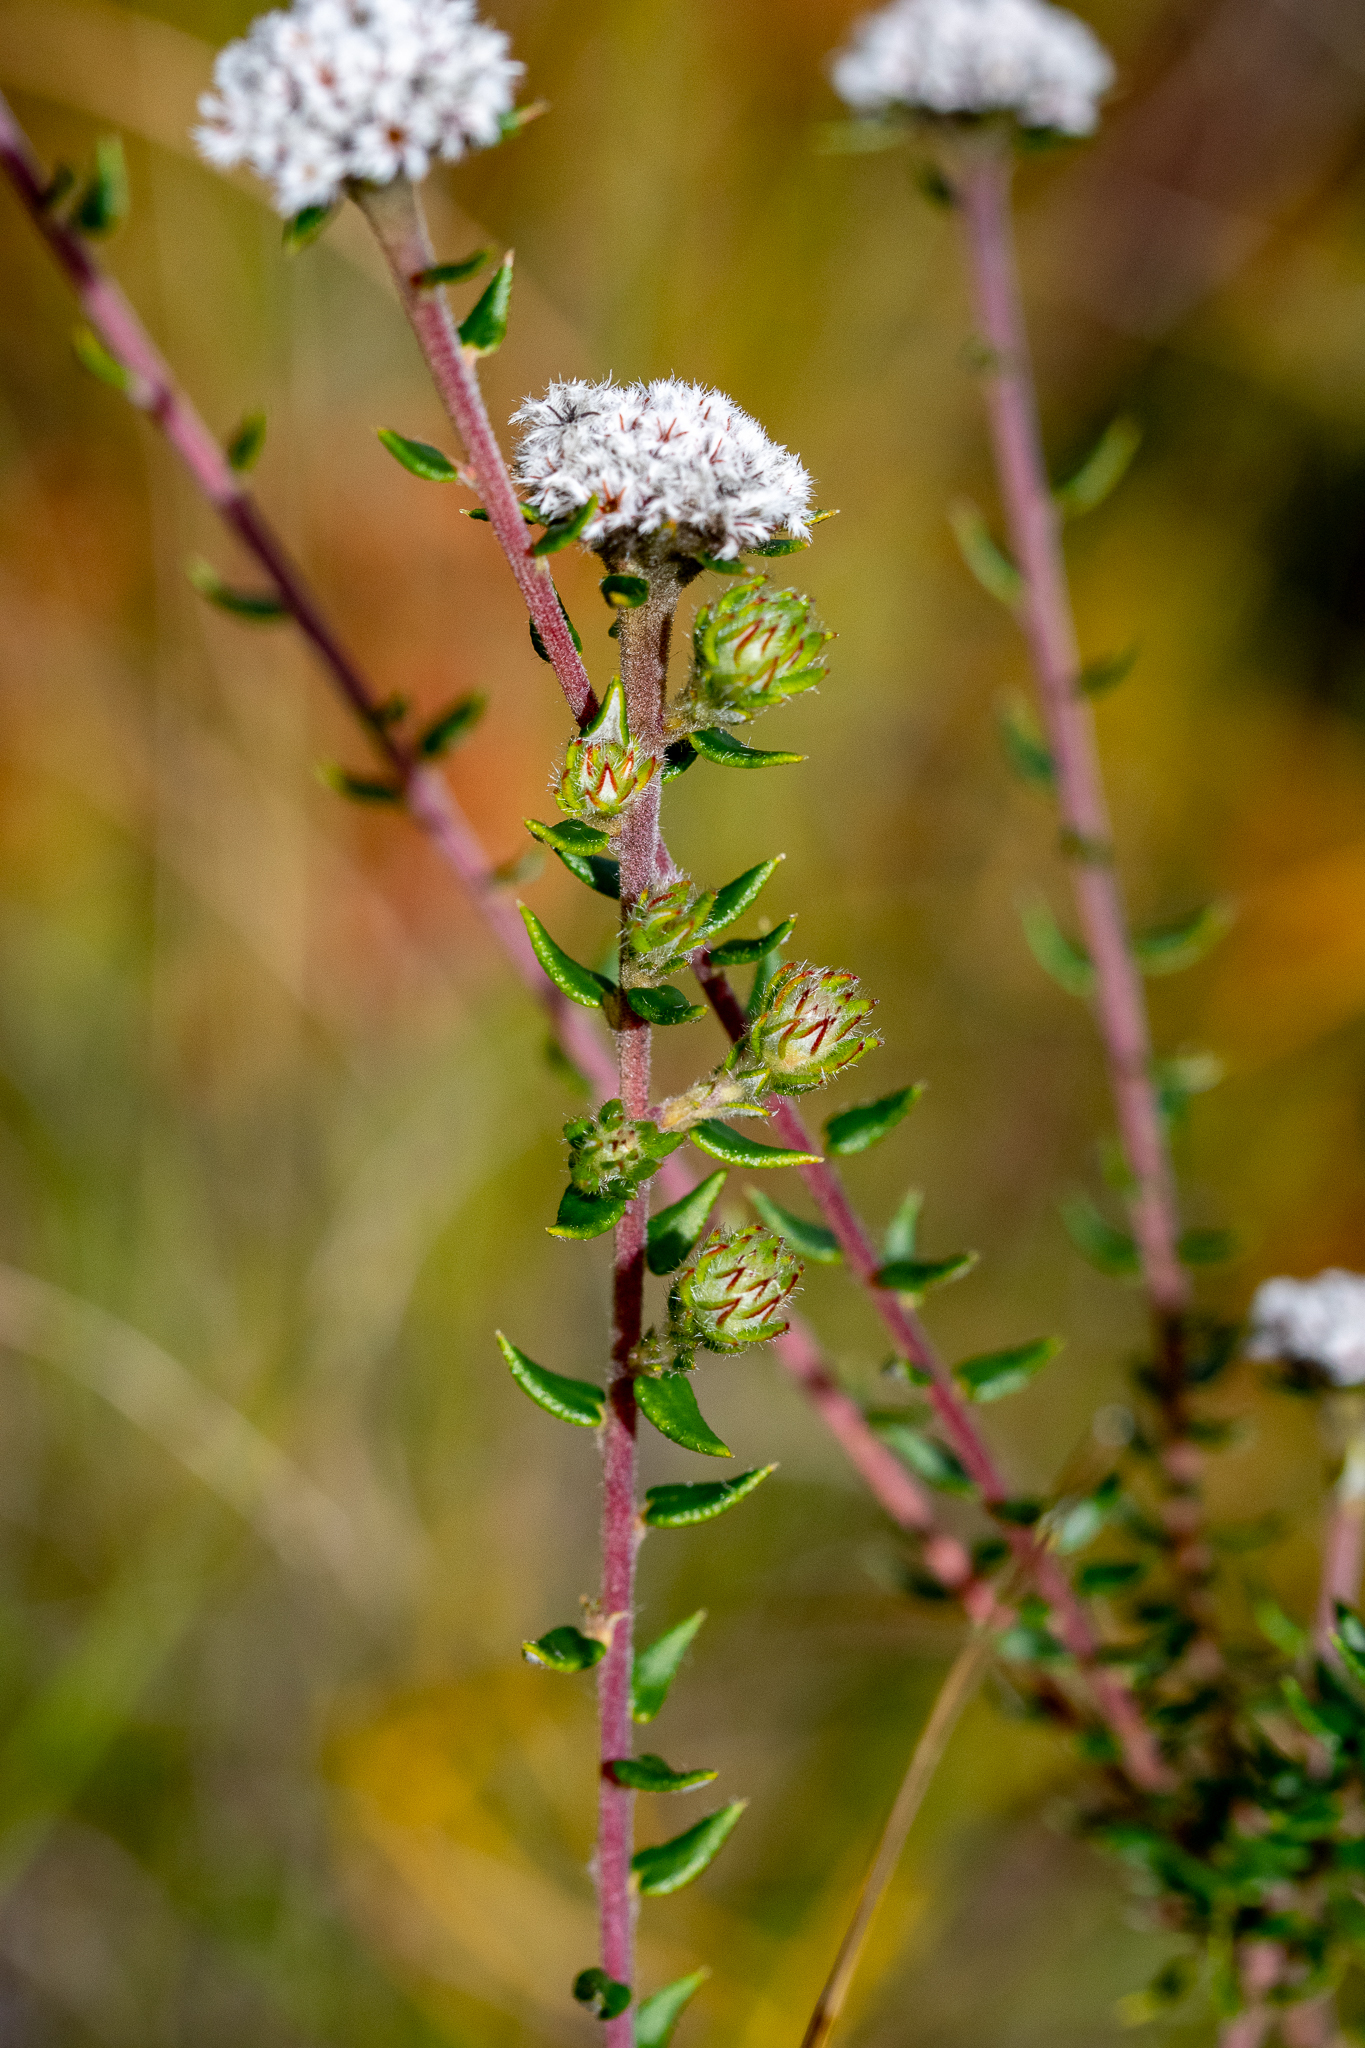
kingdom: Plantae
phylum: Tracheophyta
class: Magnoliopsida
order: Rosales
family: Rhamnaceae
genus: Phylica
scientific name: Phylica atrata
